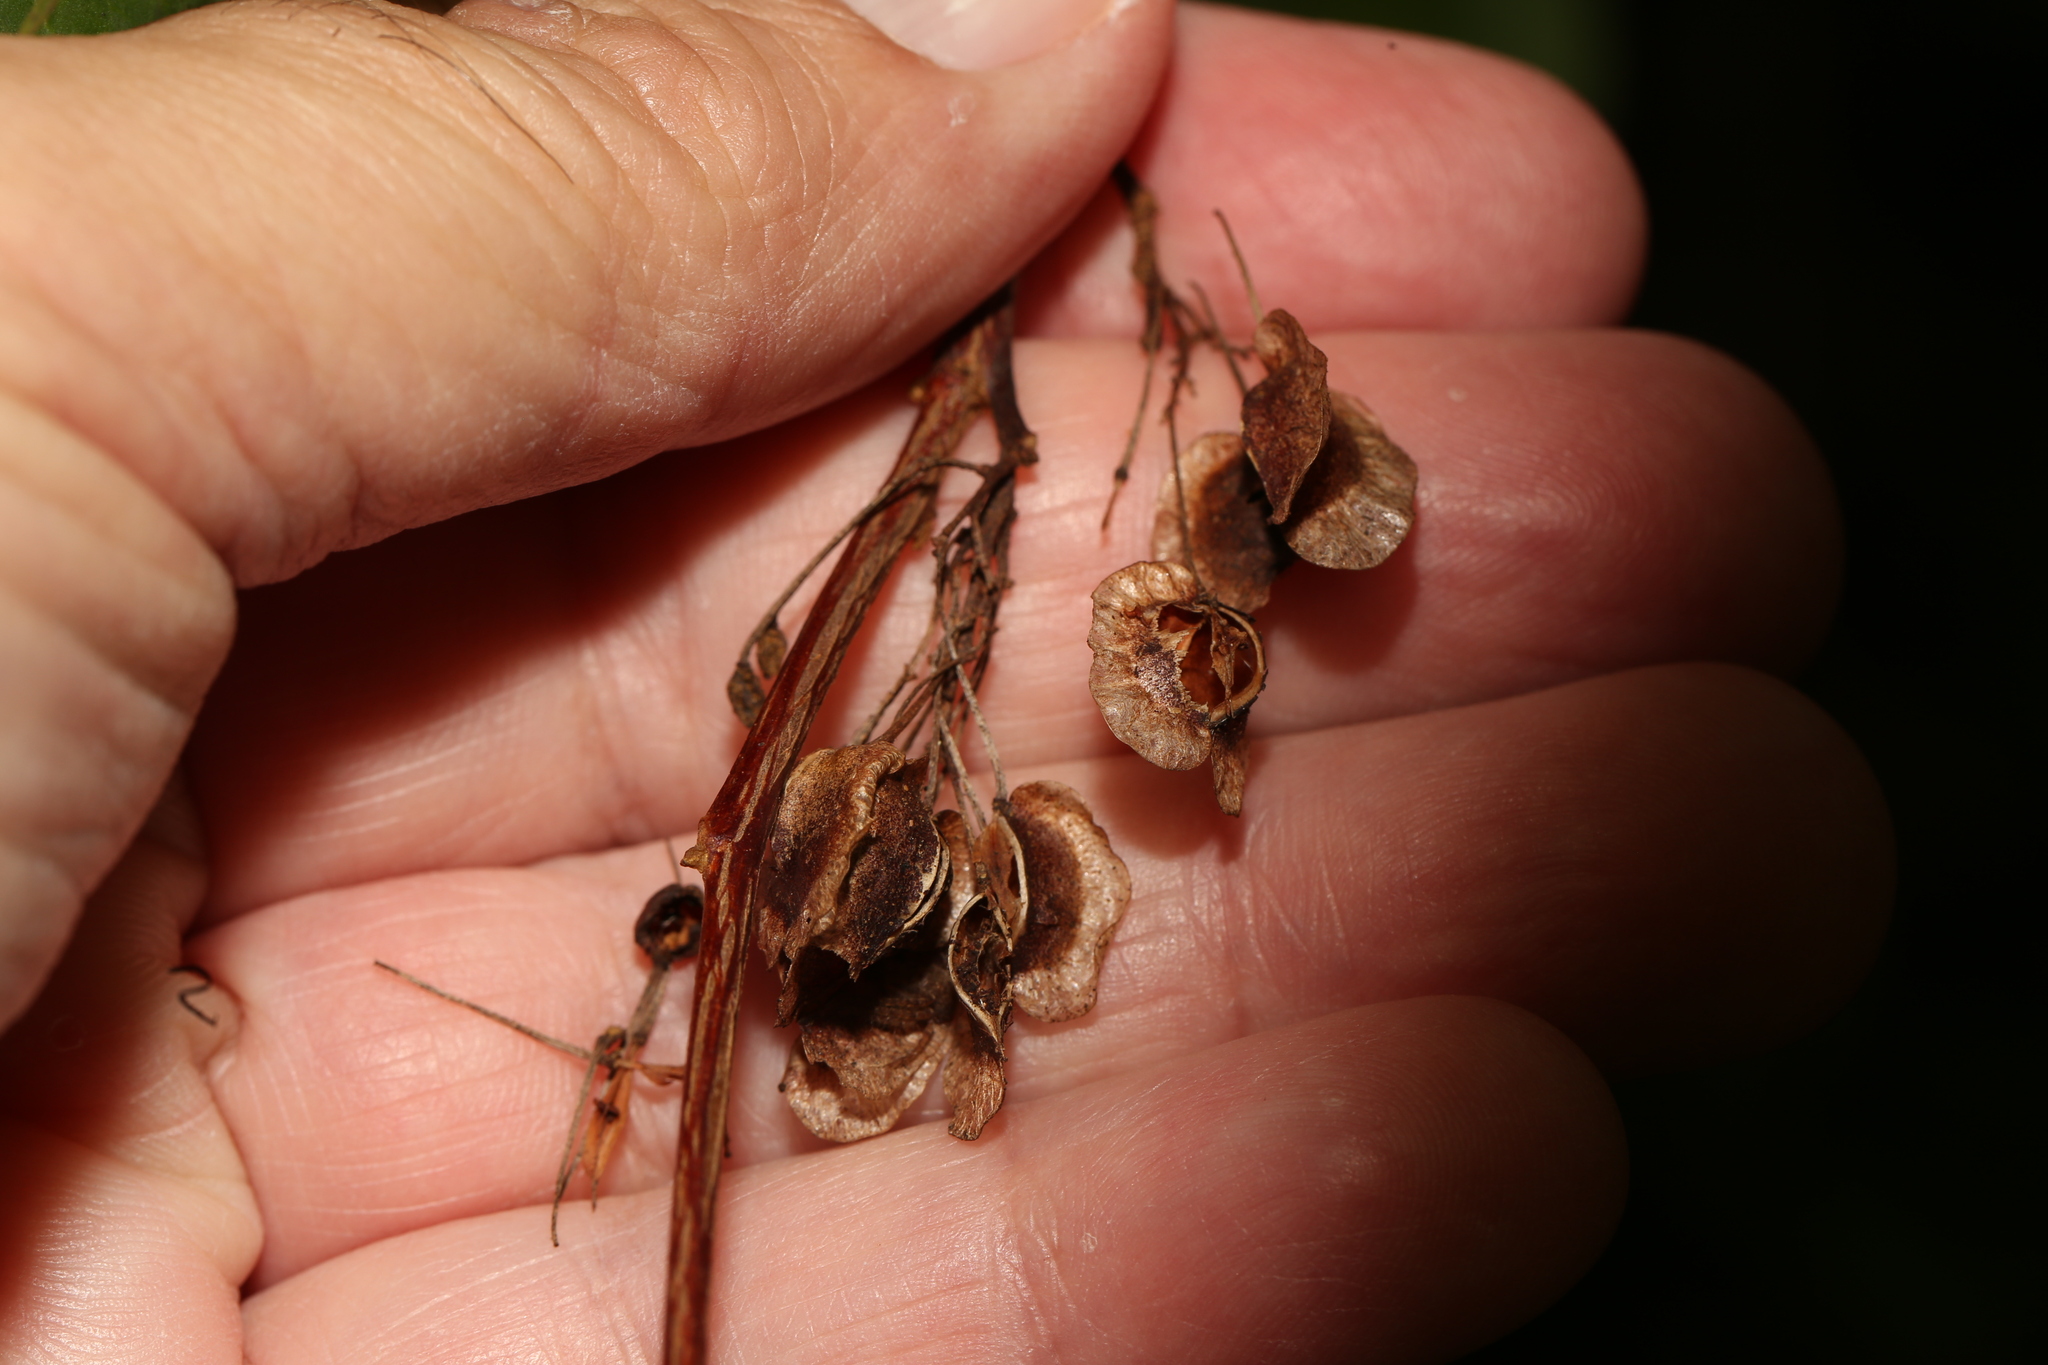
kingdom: Plantae
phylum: Tracheophyta
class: Magnoliopsida
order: Sapindales
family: Sapindaceae
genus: Dodonaea
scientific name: Dodonaea triquetra
